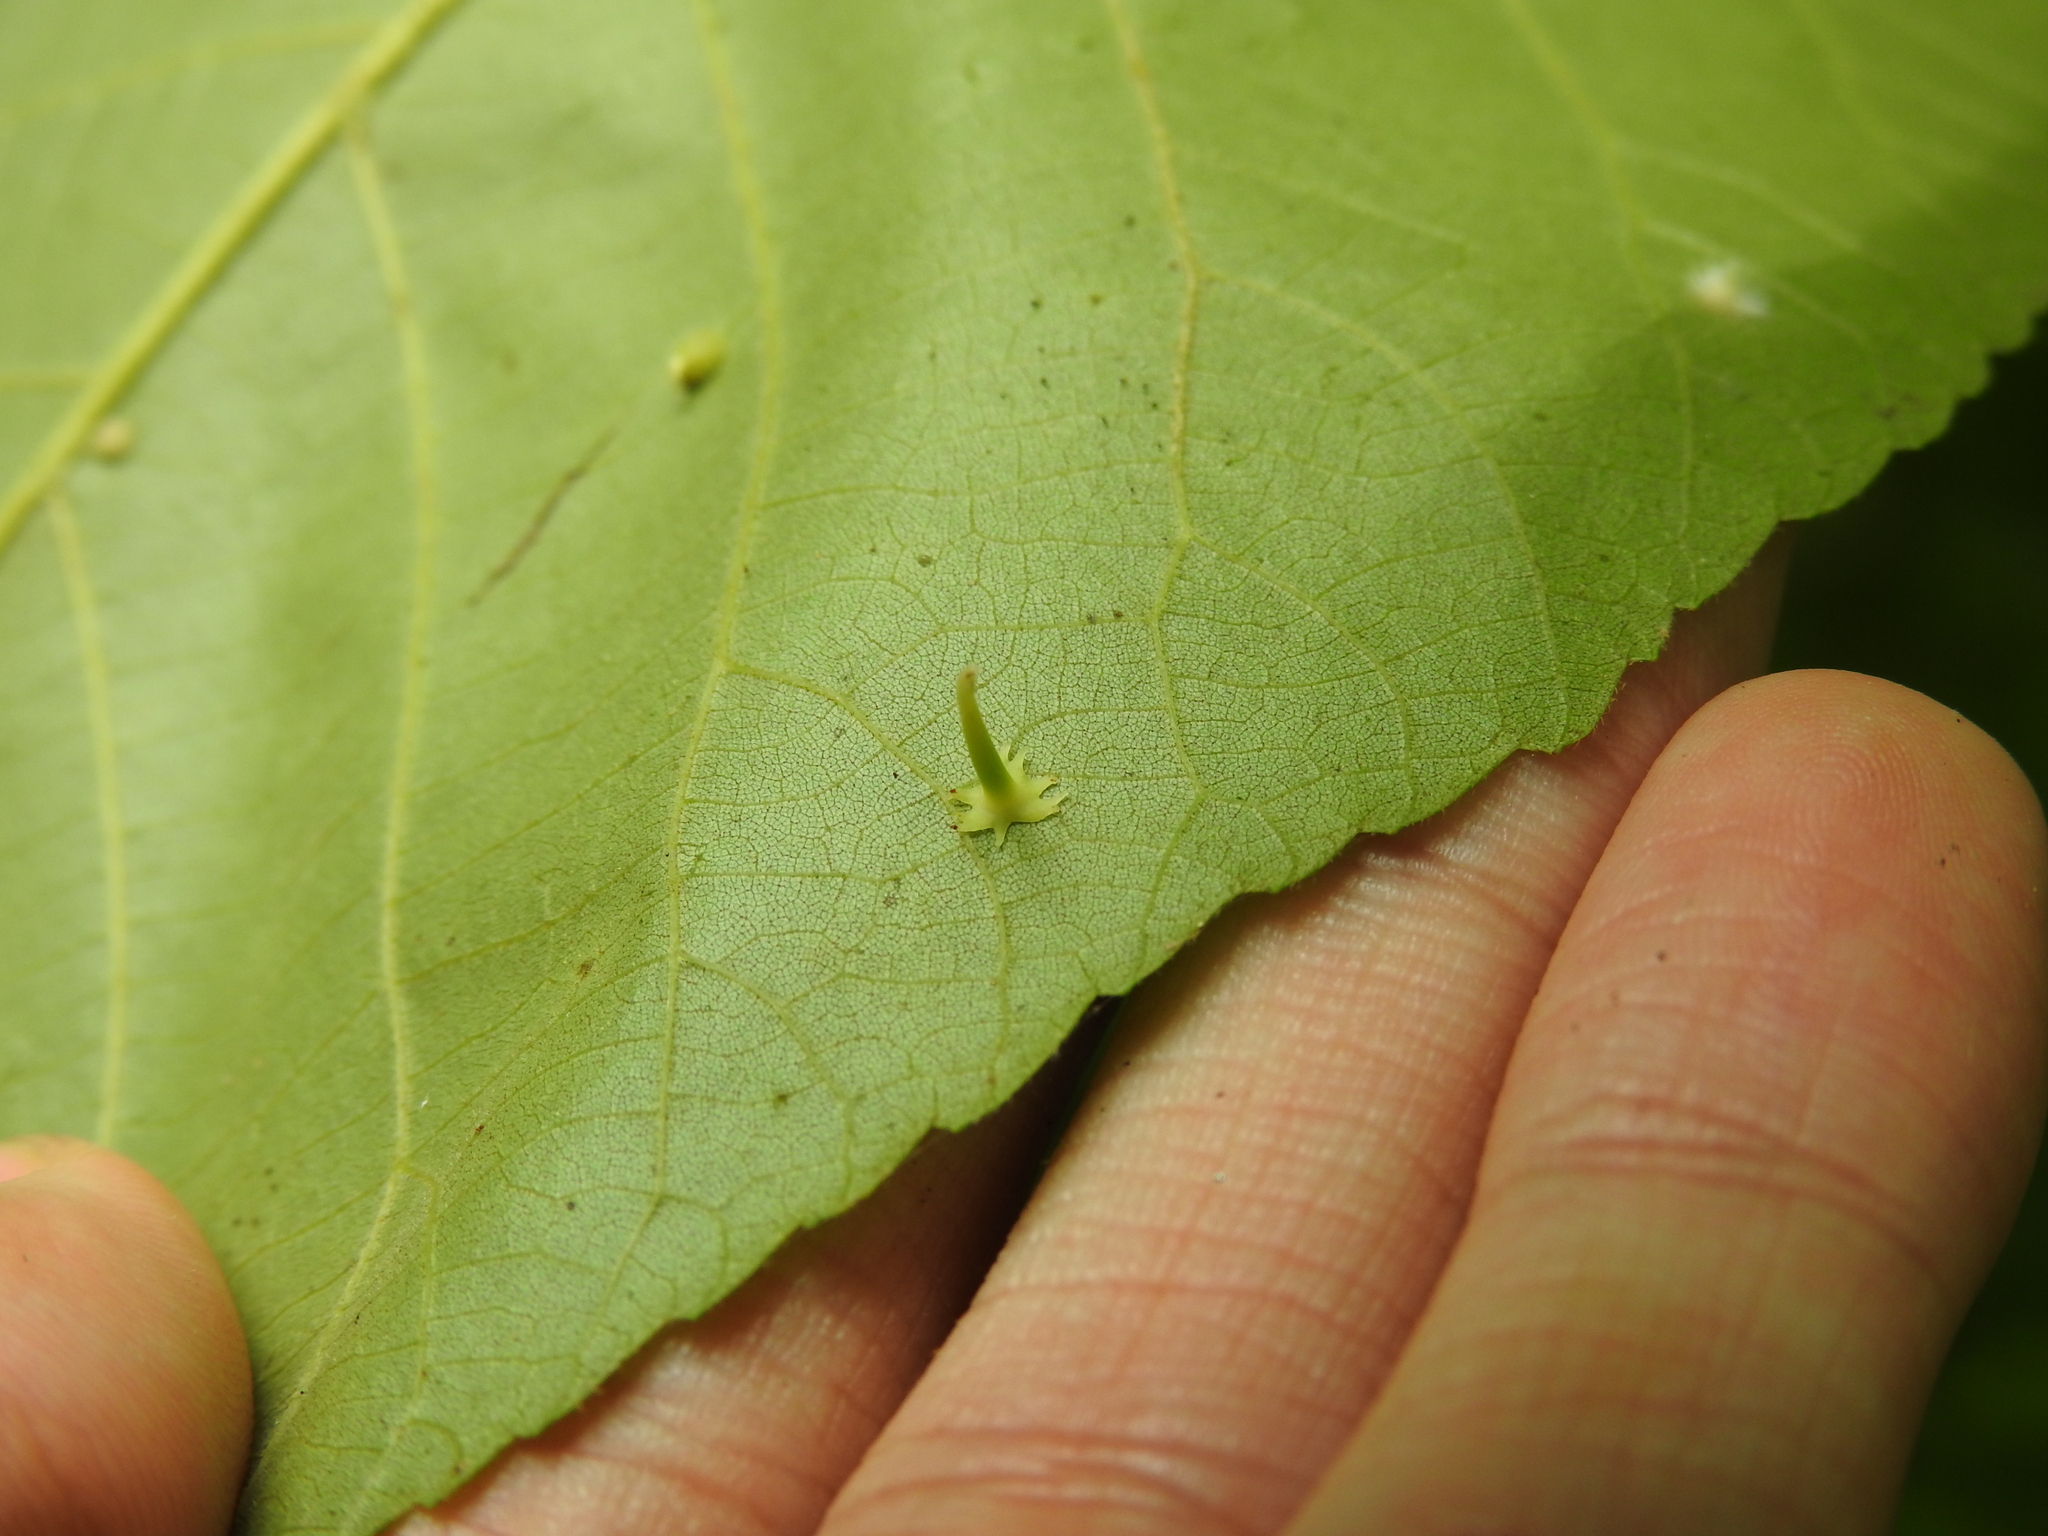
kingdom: Animalia
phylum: Arthropoda
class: Insecta
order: Diptera
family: Cecidomyiidae
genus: Caryomyia
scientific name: Caryomyia stellata
